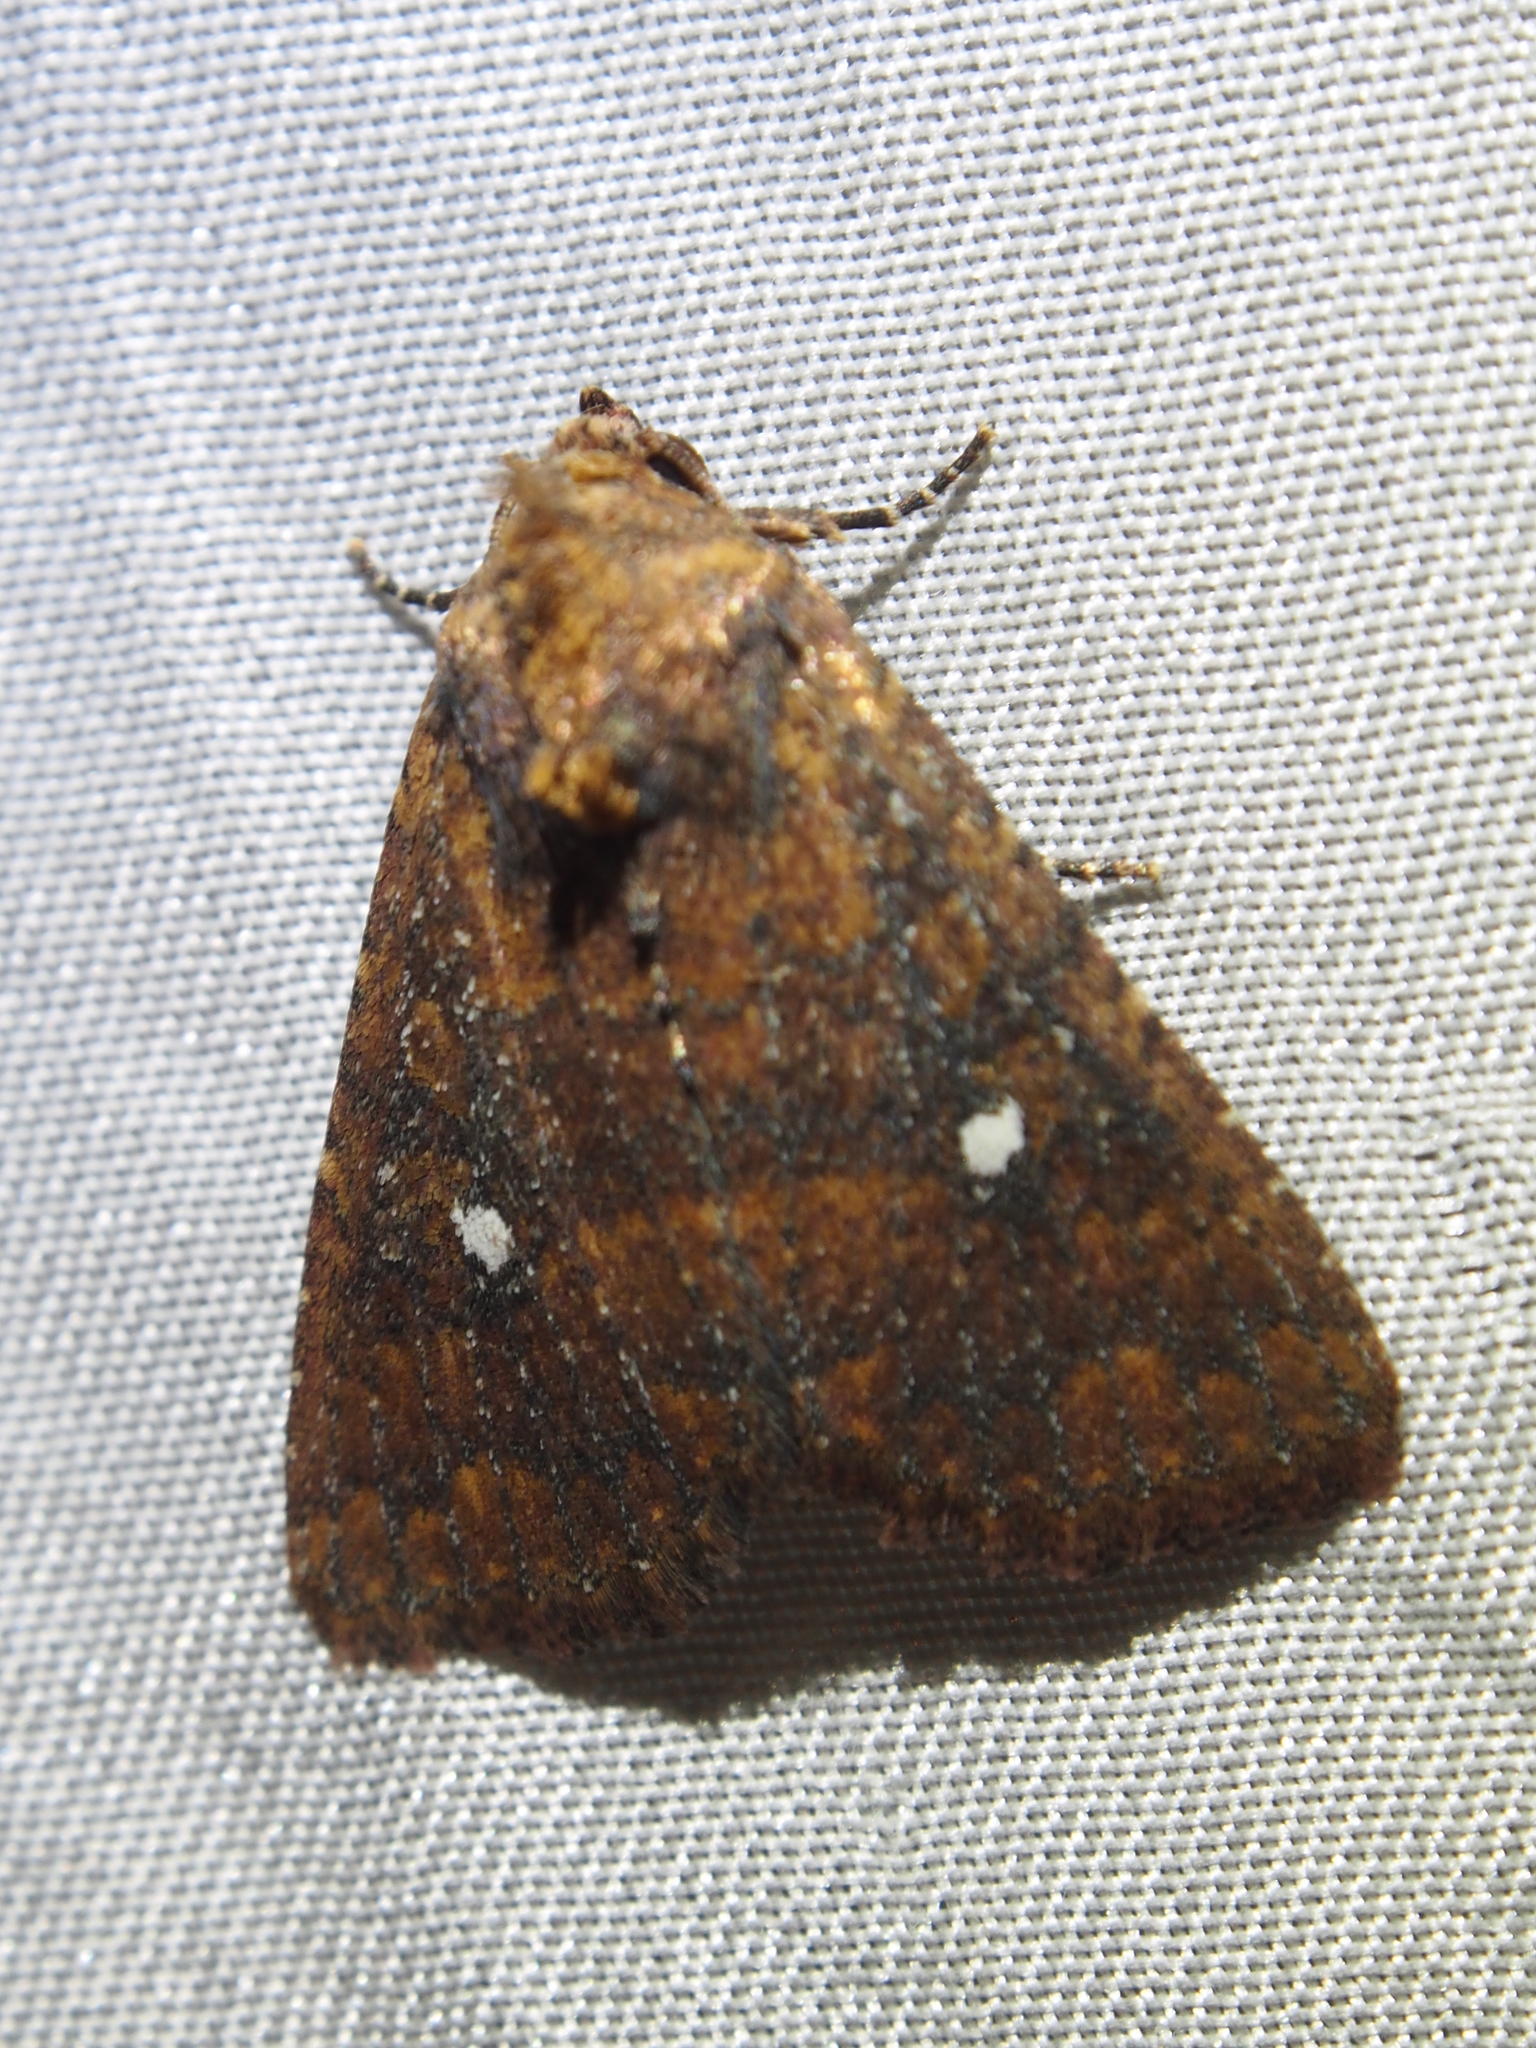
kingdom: Animalia
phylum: Arthropoda
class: Insecta
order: Lepidoptera
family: Noctuidae
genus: Condica
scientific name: Condica mobilis
